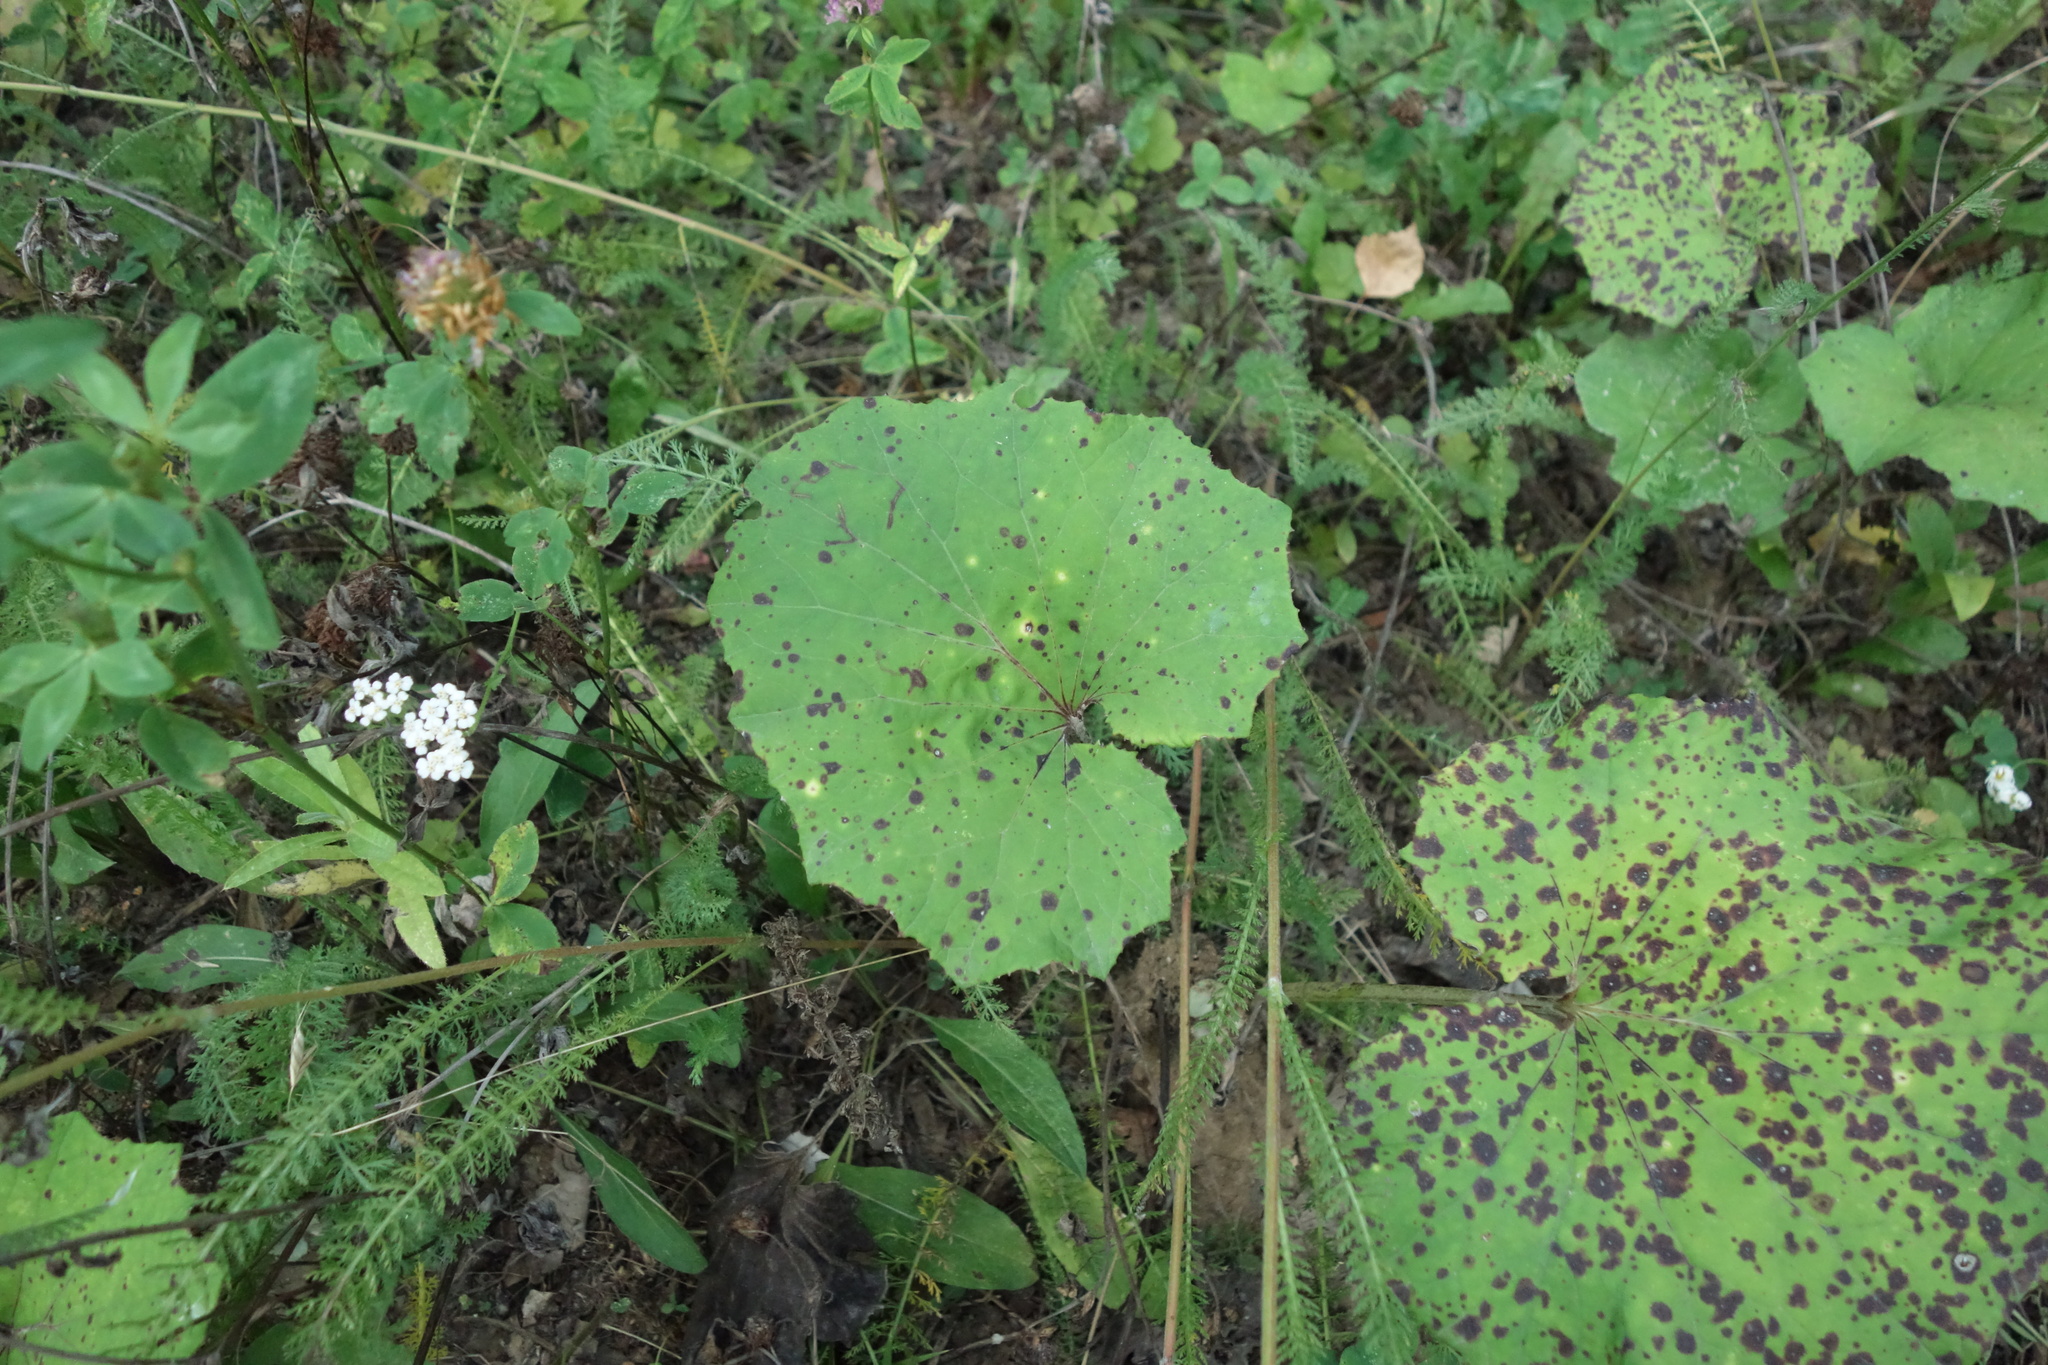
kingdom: Plantae
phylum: Tracheophyta
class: Magnoliopsida
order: Asterales
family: Asteraceae
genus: Tussilago
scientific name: Tussilago farfara
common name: Coltsfoot
